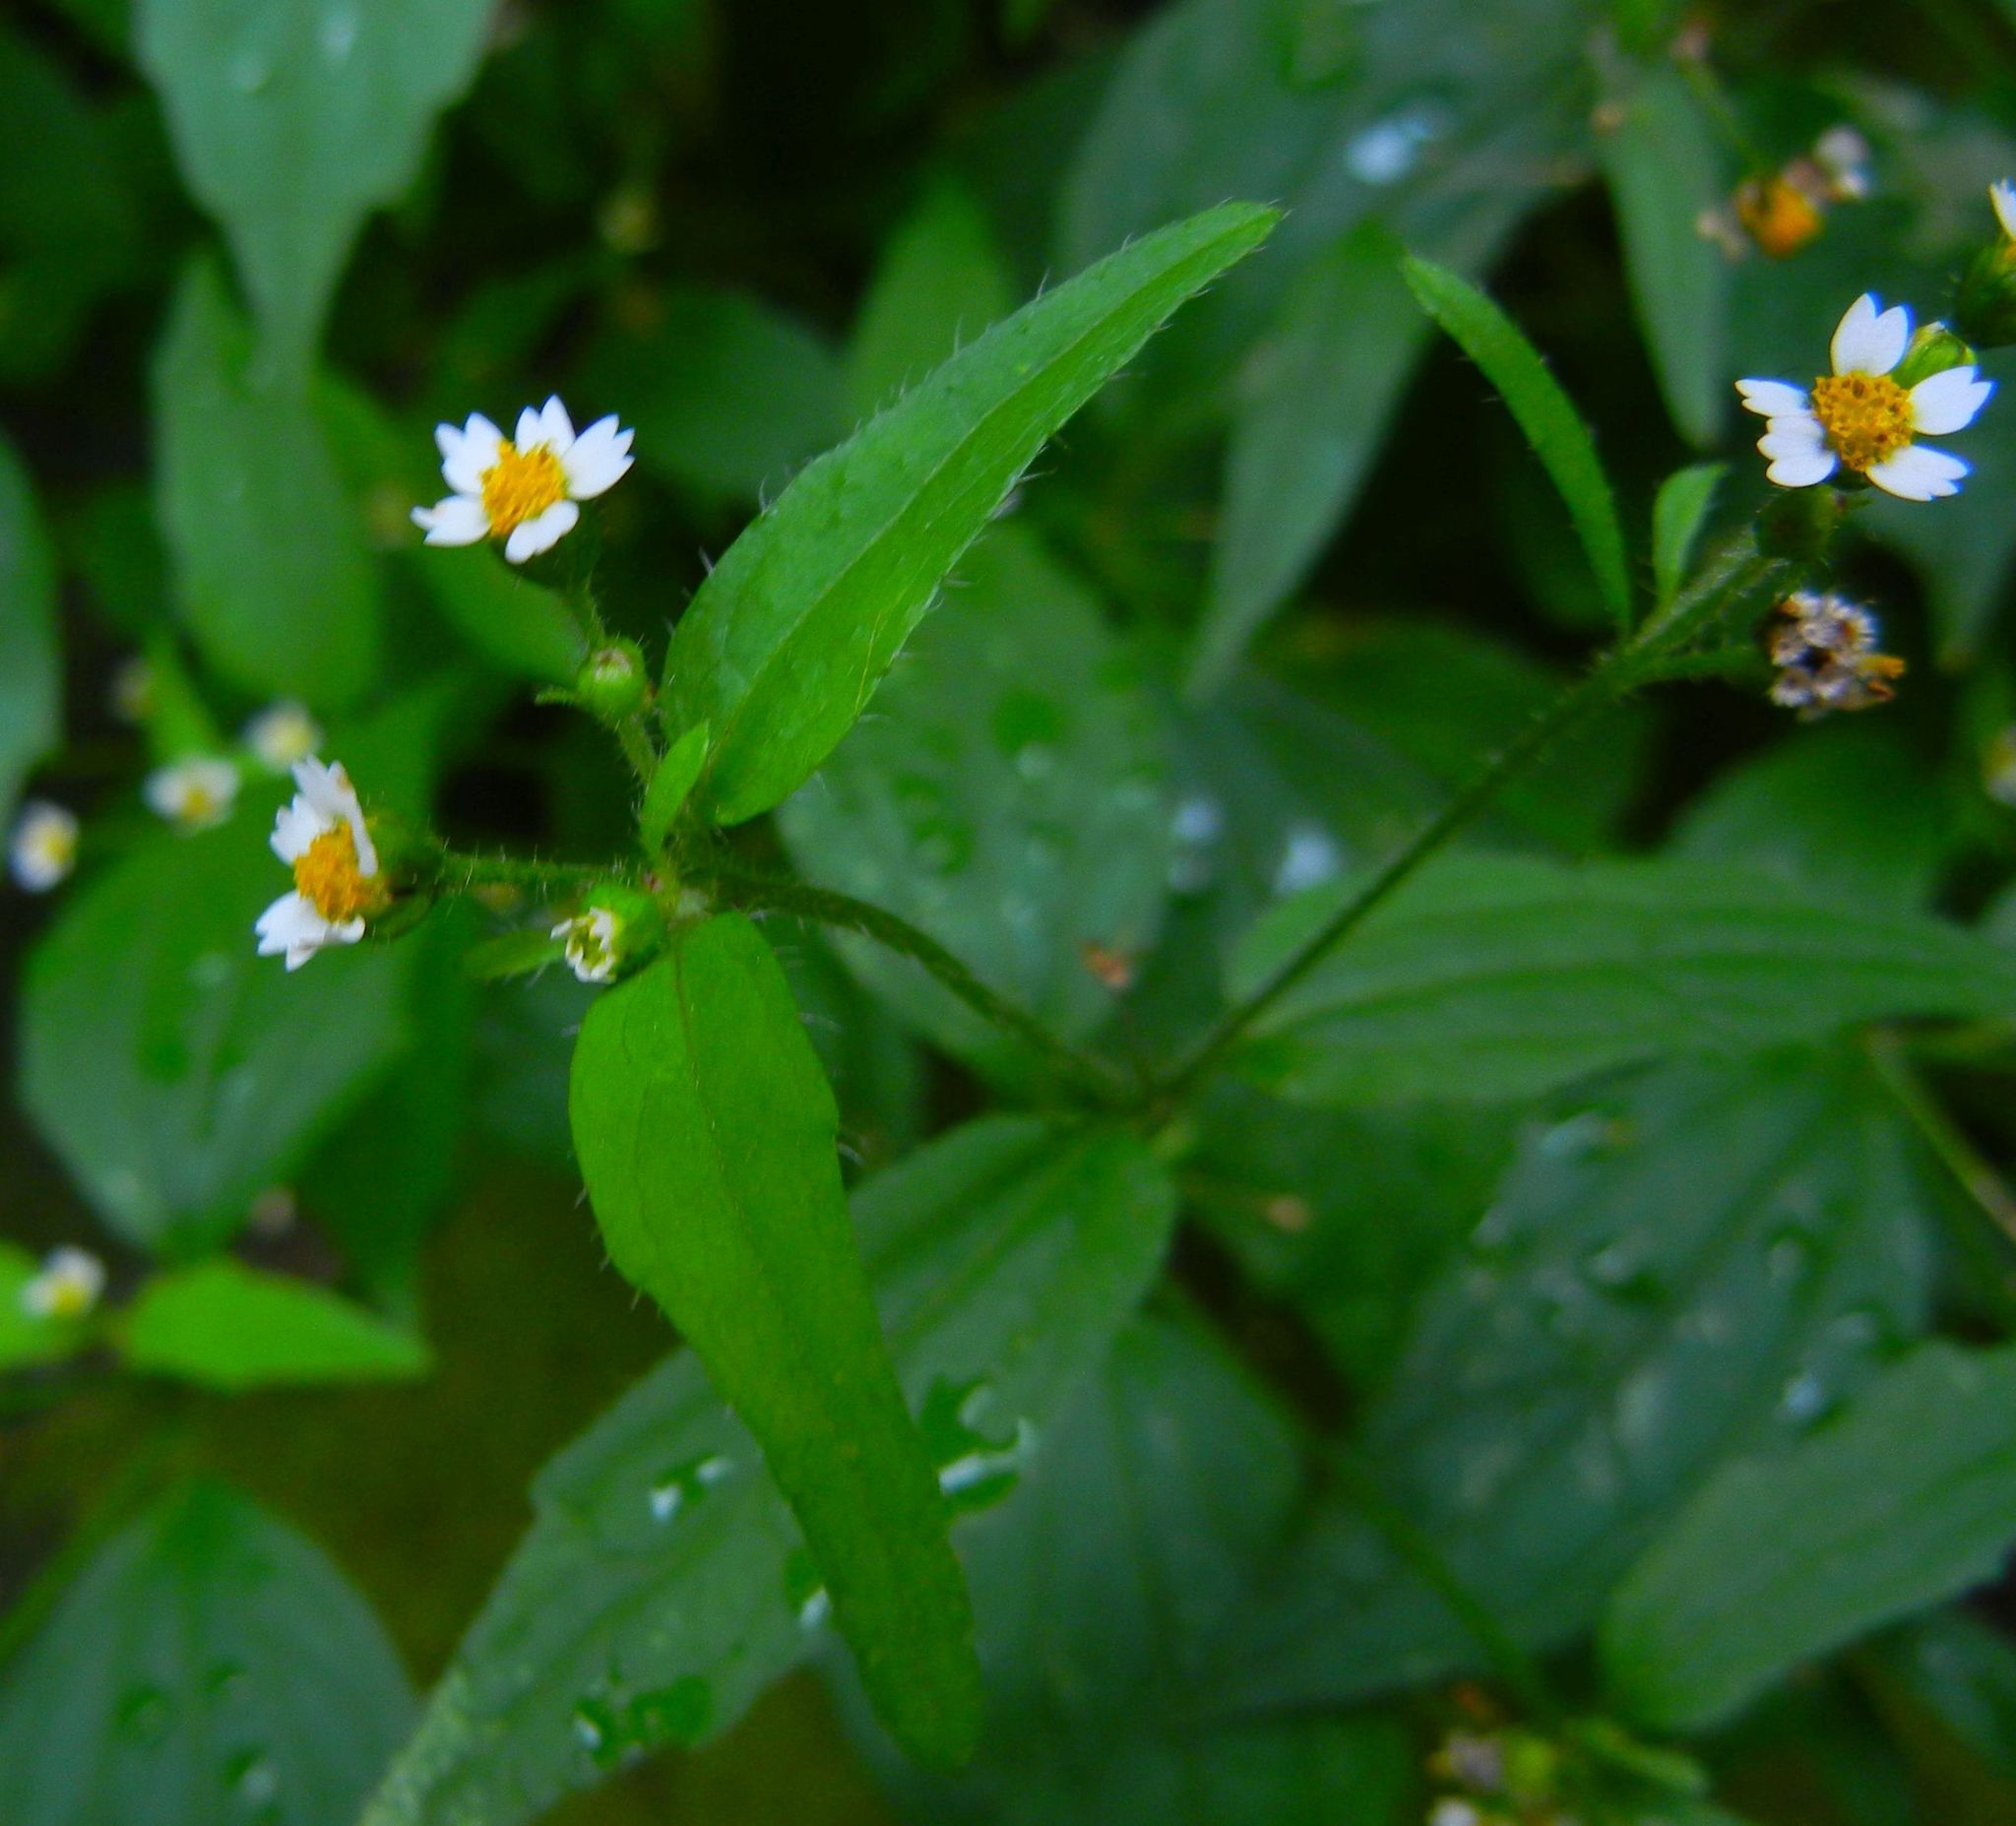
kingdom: Plantae
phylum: Tracheophyta
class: Magnoliopsida
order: Asterales
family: Asteraceae
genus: Galinsoga
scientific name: Galinsoga quadriradiata
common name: Shaggy soldier
